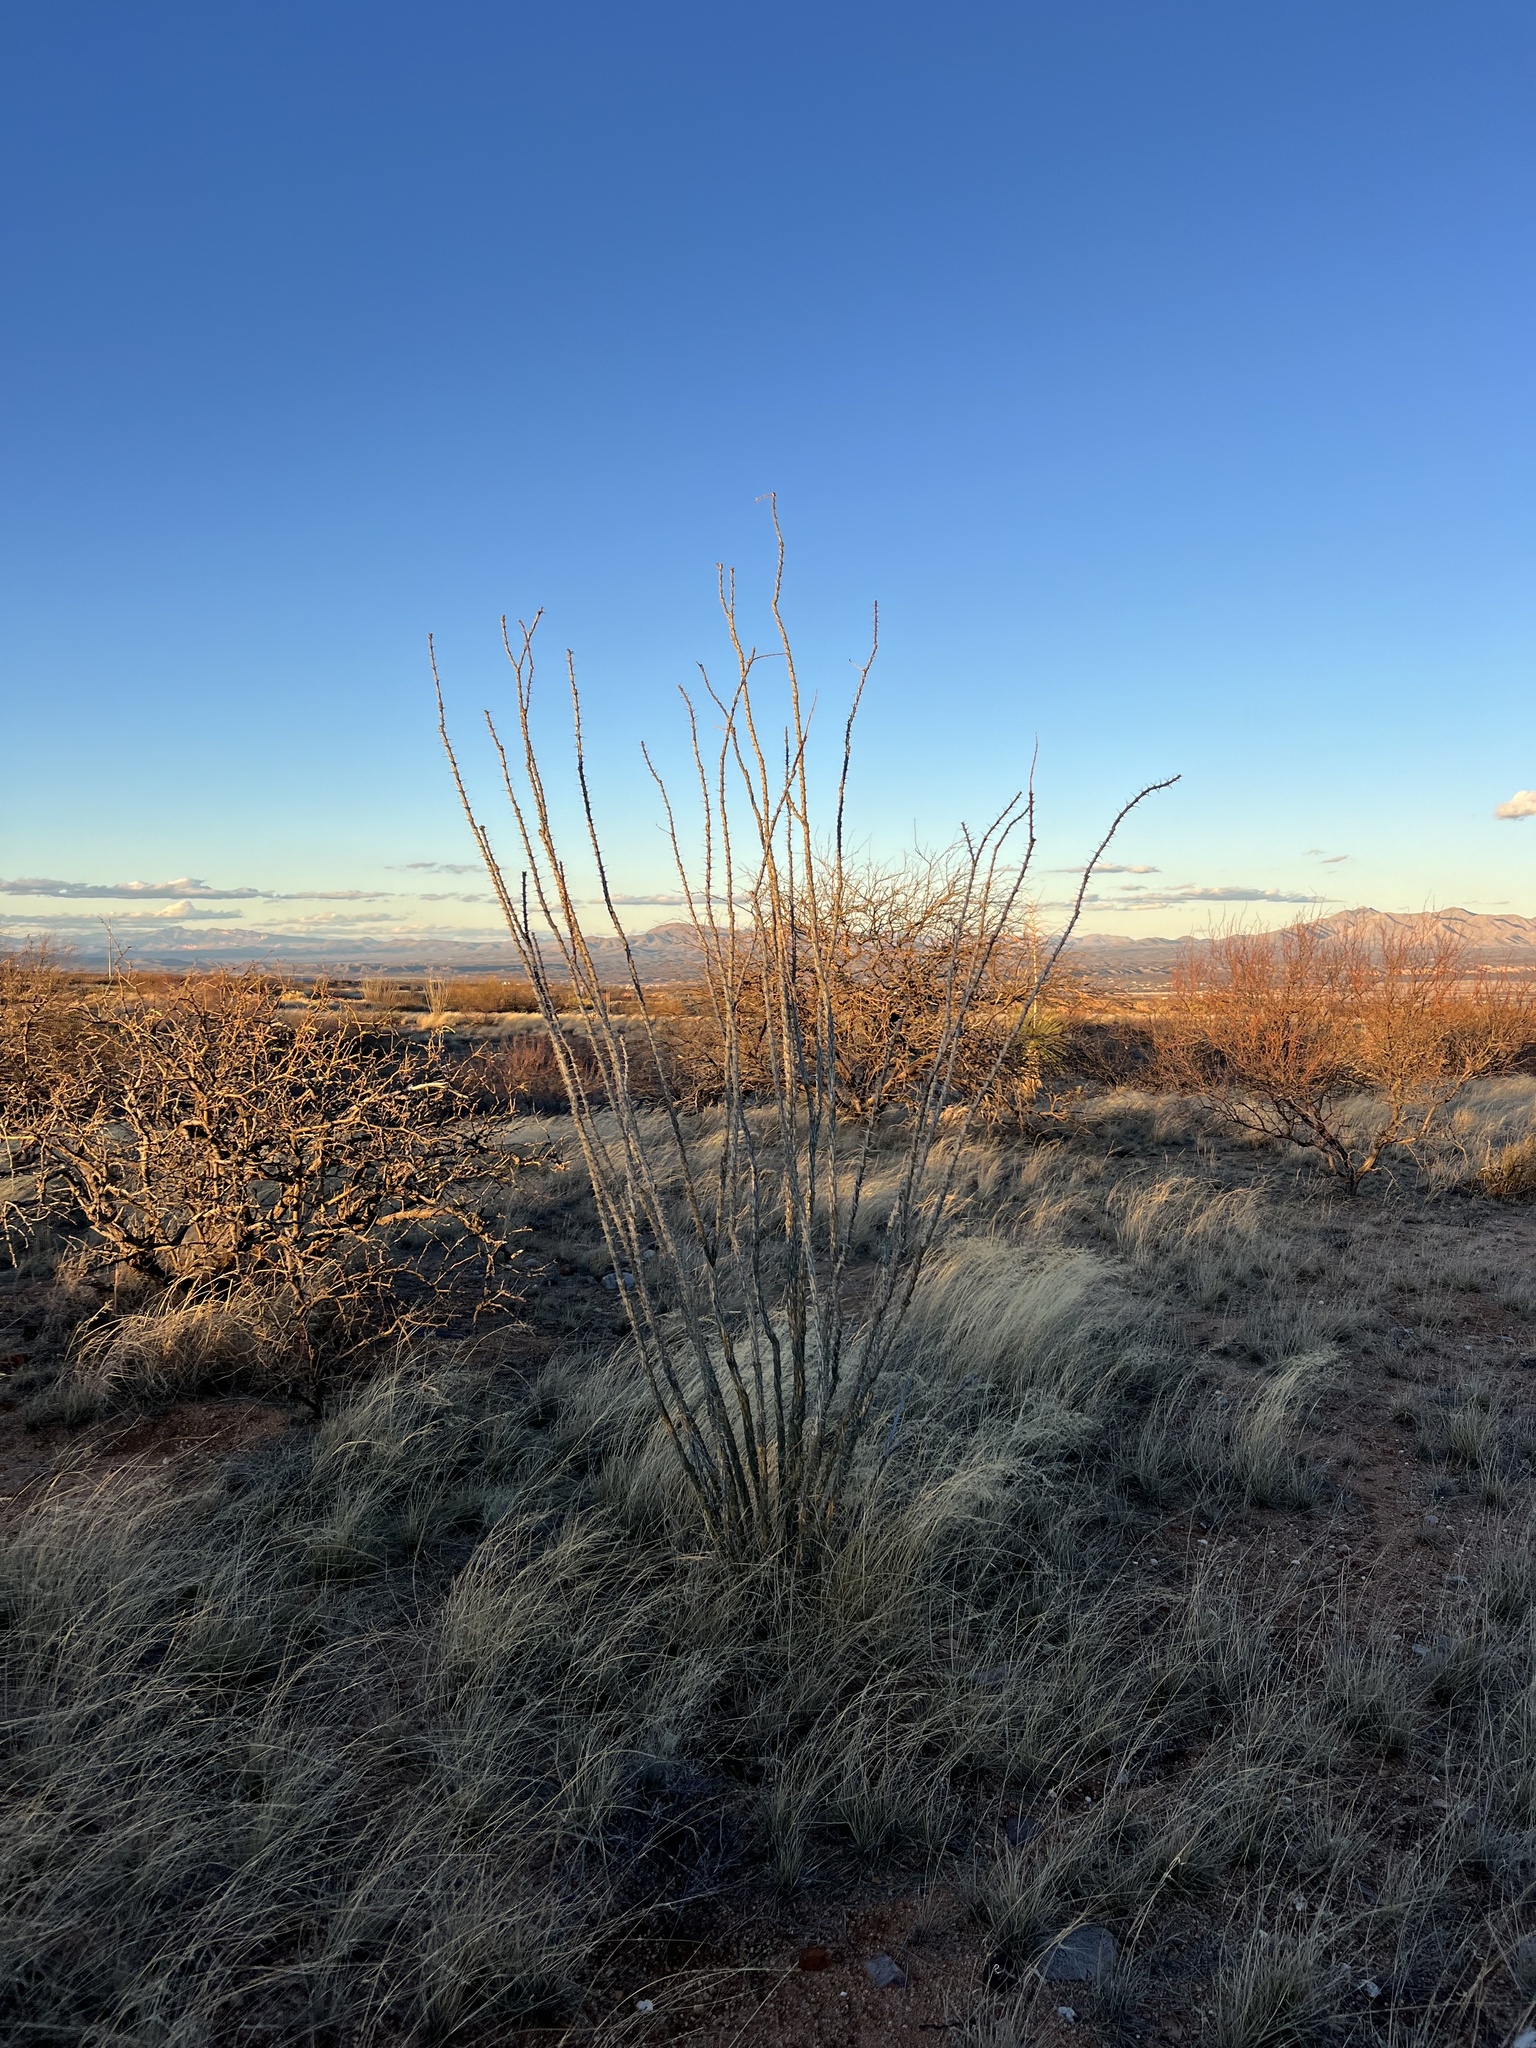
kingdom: Plantae
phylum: Tracheophyta
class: Magnoliopsida
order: Ericales
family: Fouquieriaceae
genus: Fouquieria
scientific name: Fouquieria splendens
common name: Vine-cactus
